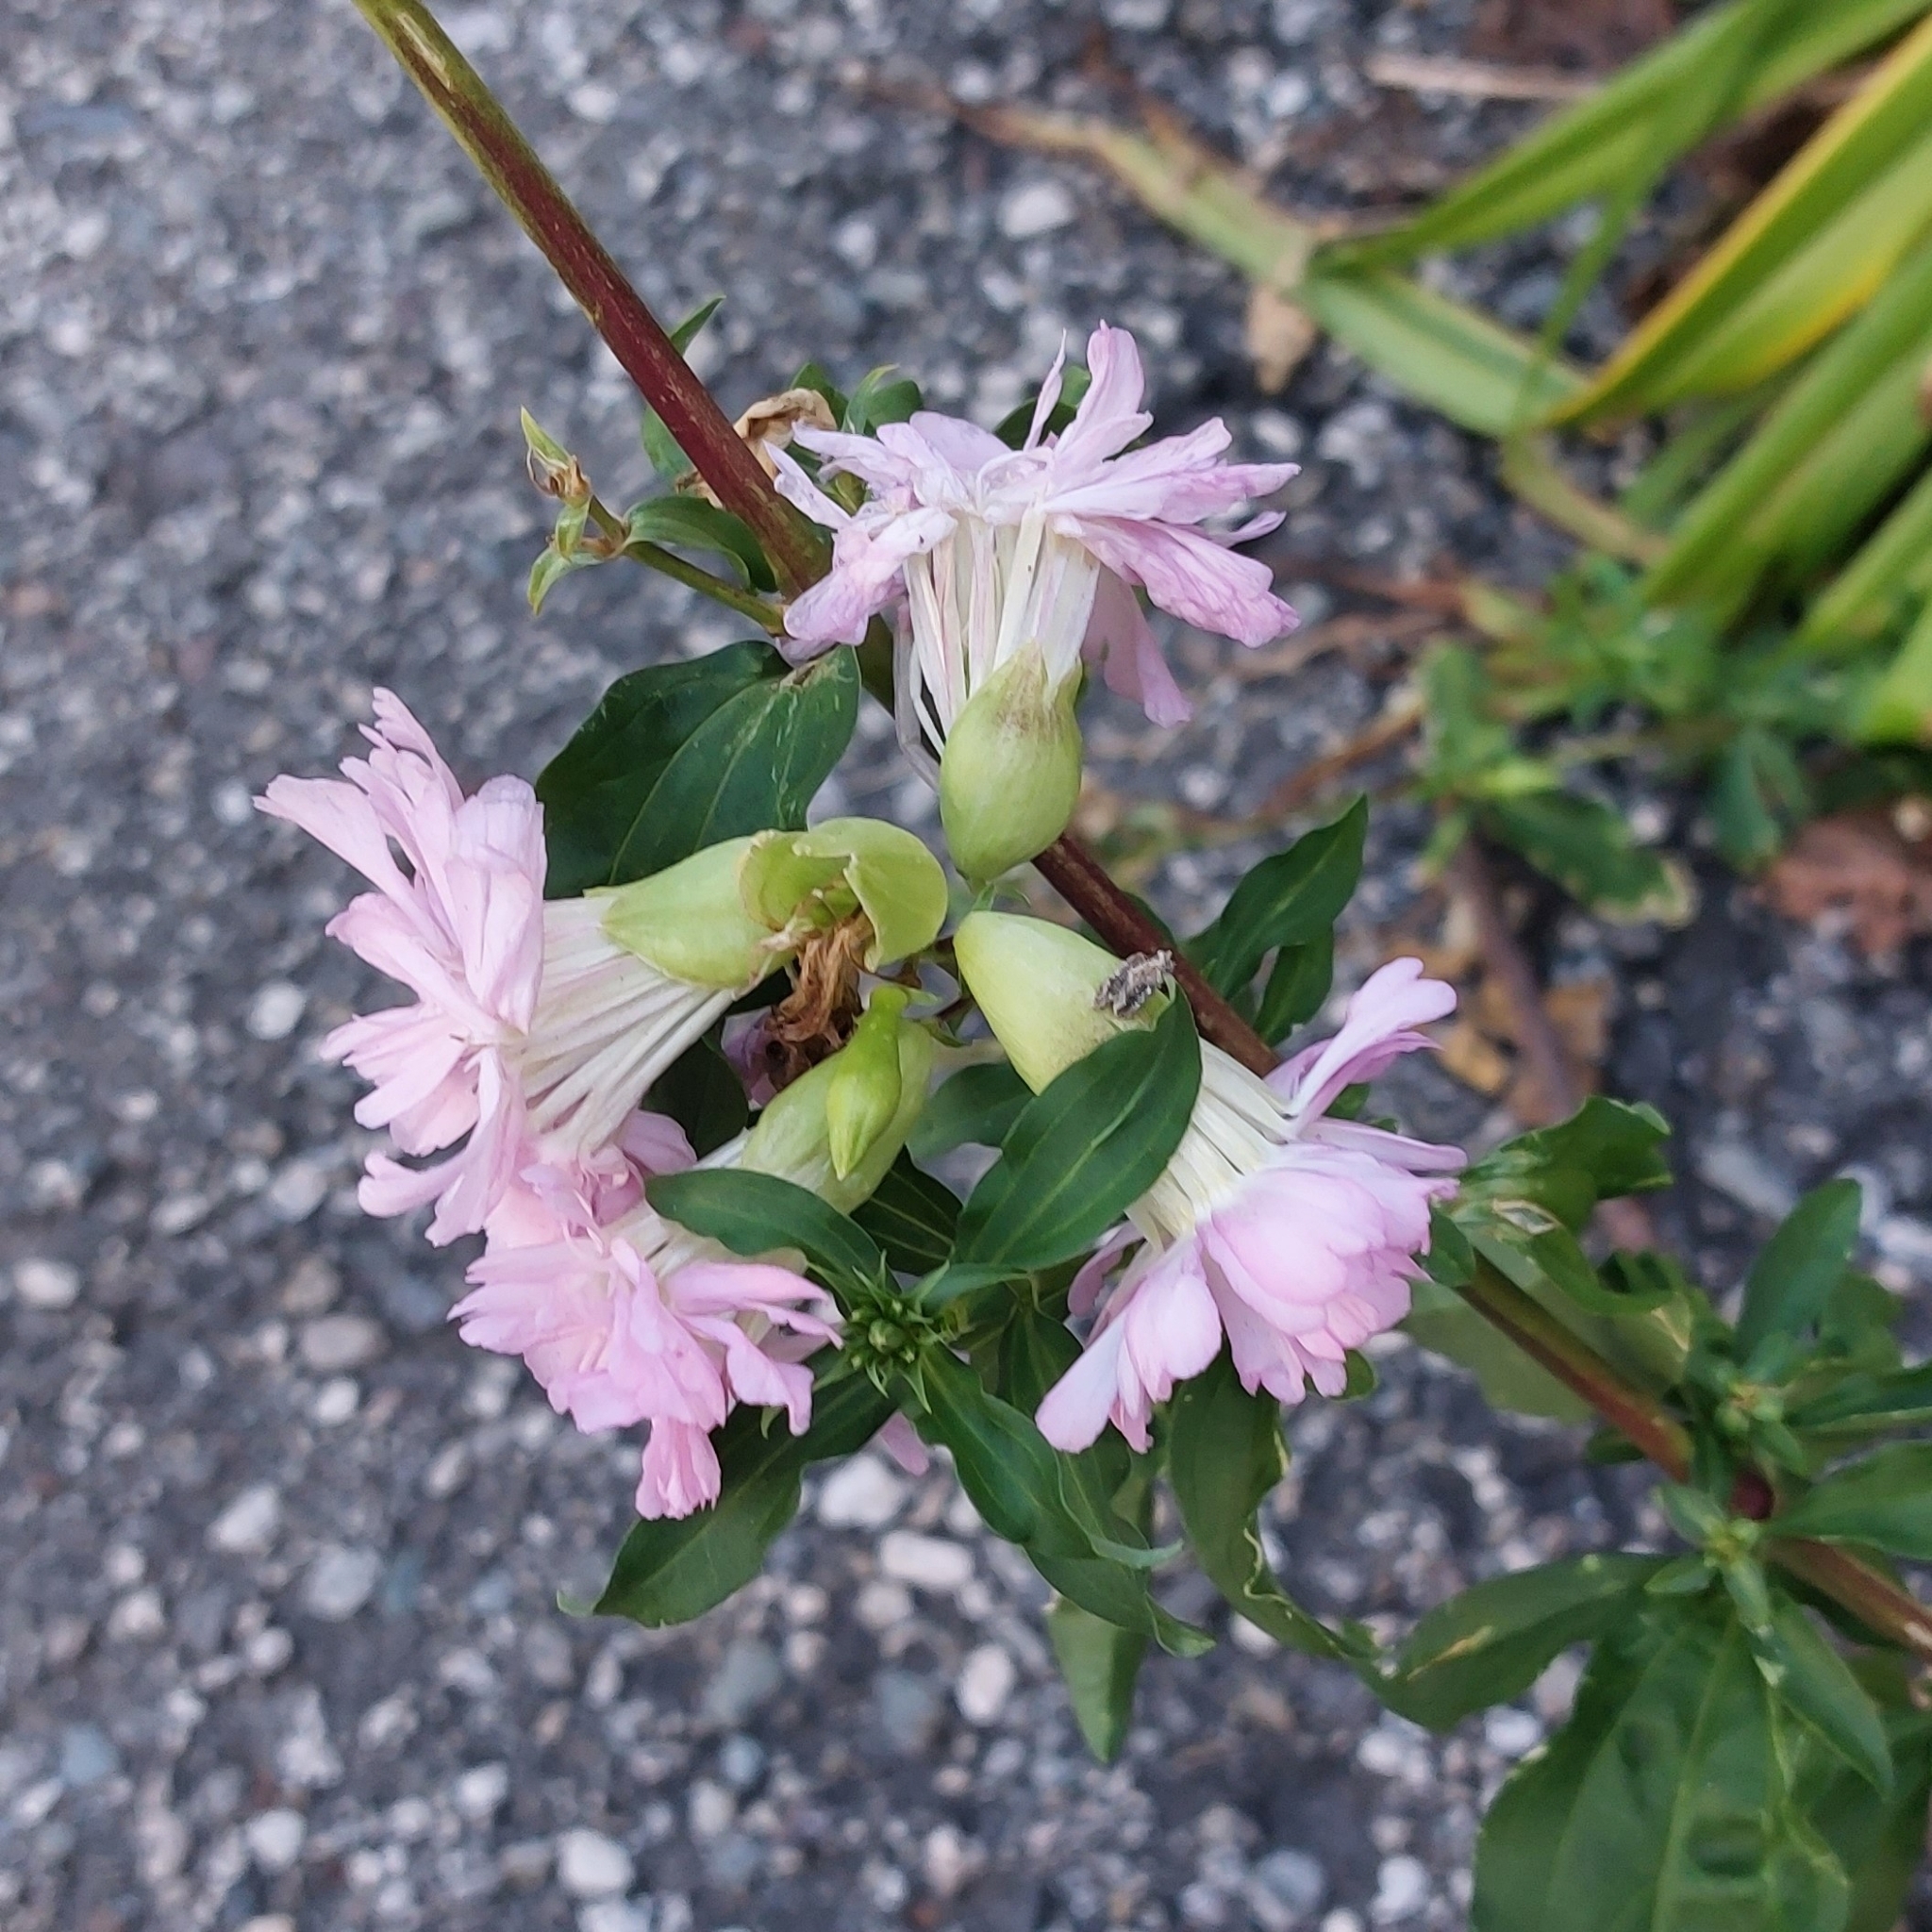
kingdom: Plantae
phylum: Tracheophyta
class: Magnoliopsida
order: Caryophyllales
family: Caryophyllaceae
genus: Saponaria
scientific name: Saponaria officinalis
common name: Soapwort
